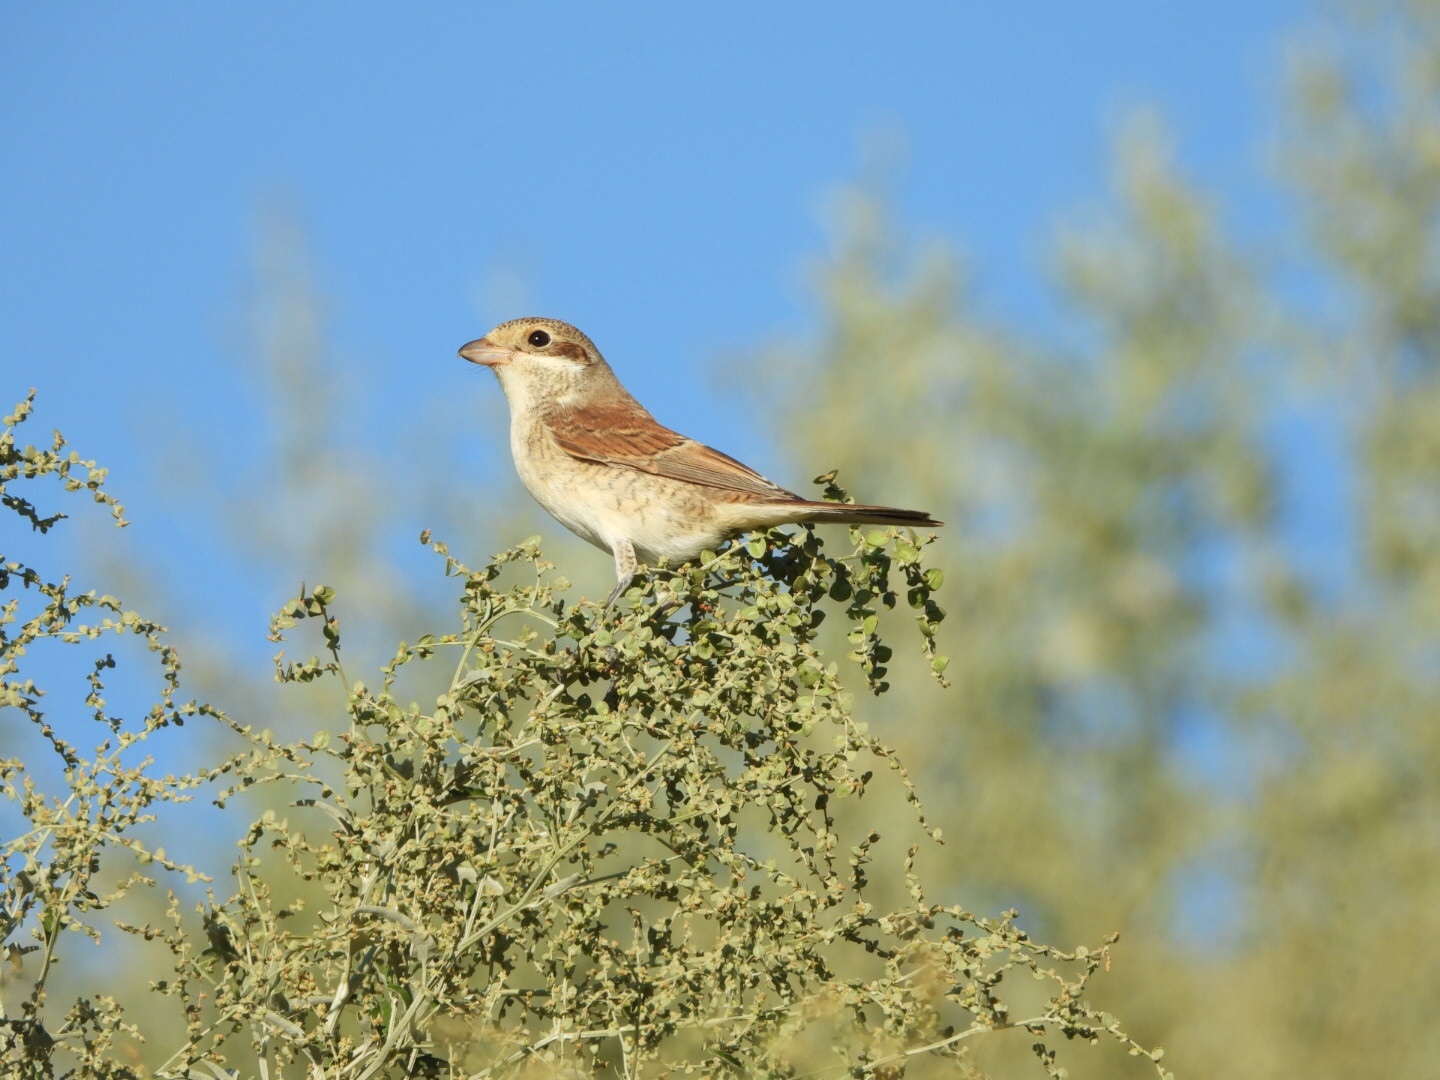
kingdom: Animalia
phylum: Chordata
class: Aves
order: Passeriformes
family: Laniidae
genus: Lanius
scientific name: Lanius collurio
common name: Red-backed shrike
